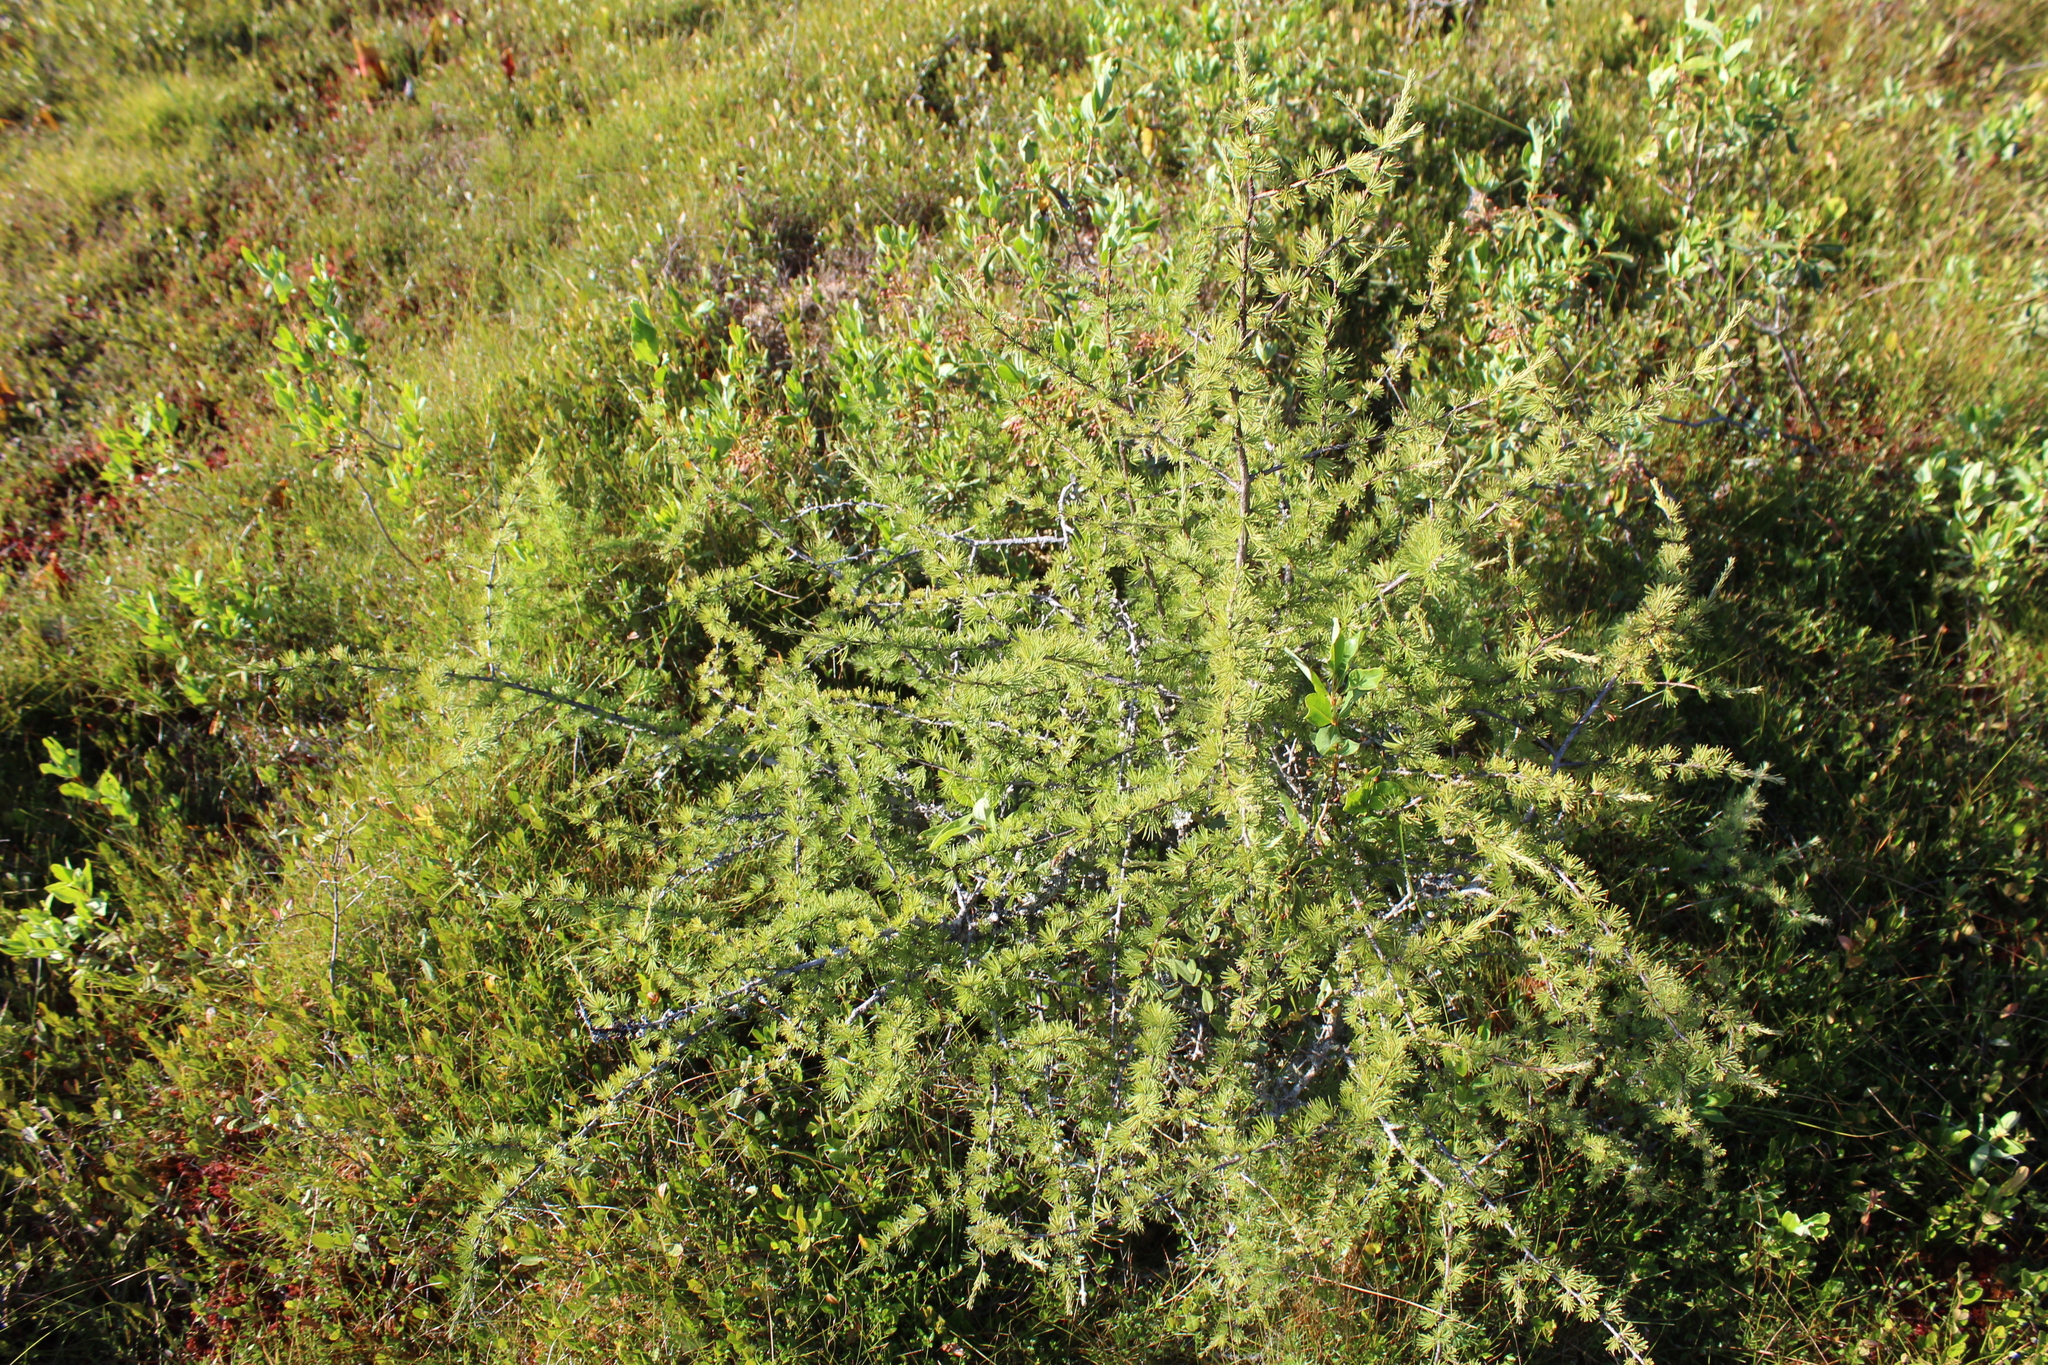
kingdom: Plantae
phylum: Tracheophyta
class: Pinopsida
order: Pinales
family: Pinaceae
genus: Larix
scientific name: Larix laricina
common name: American larch
